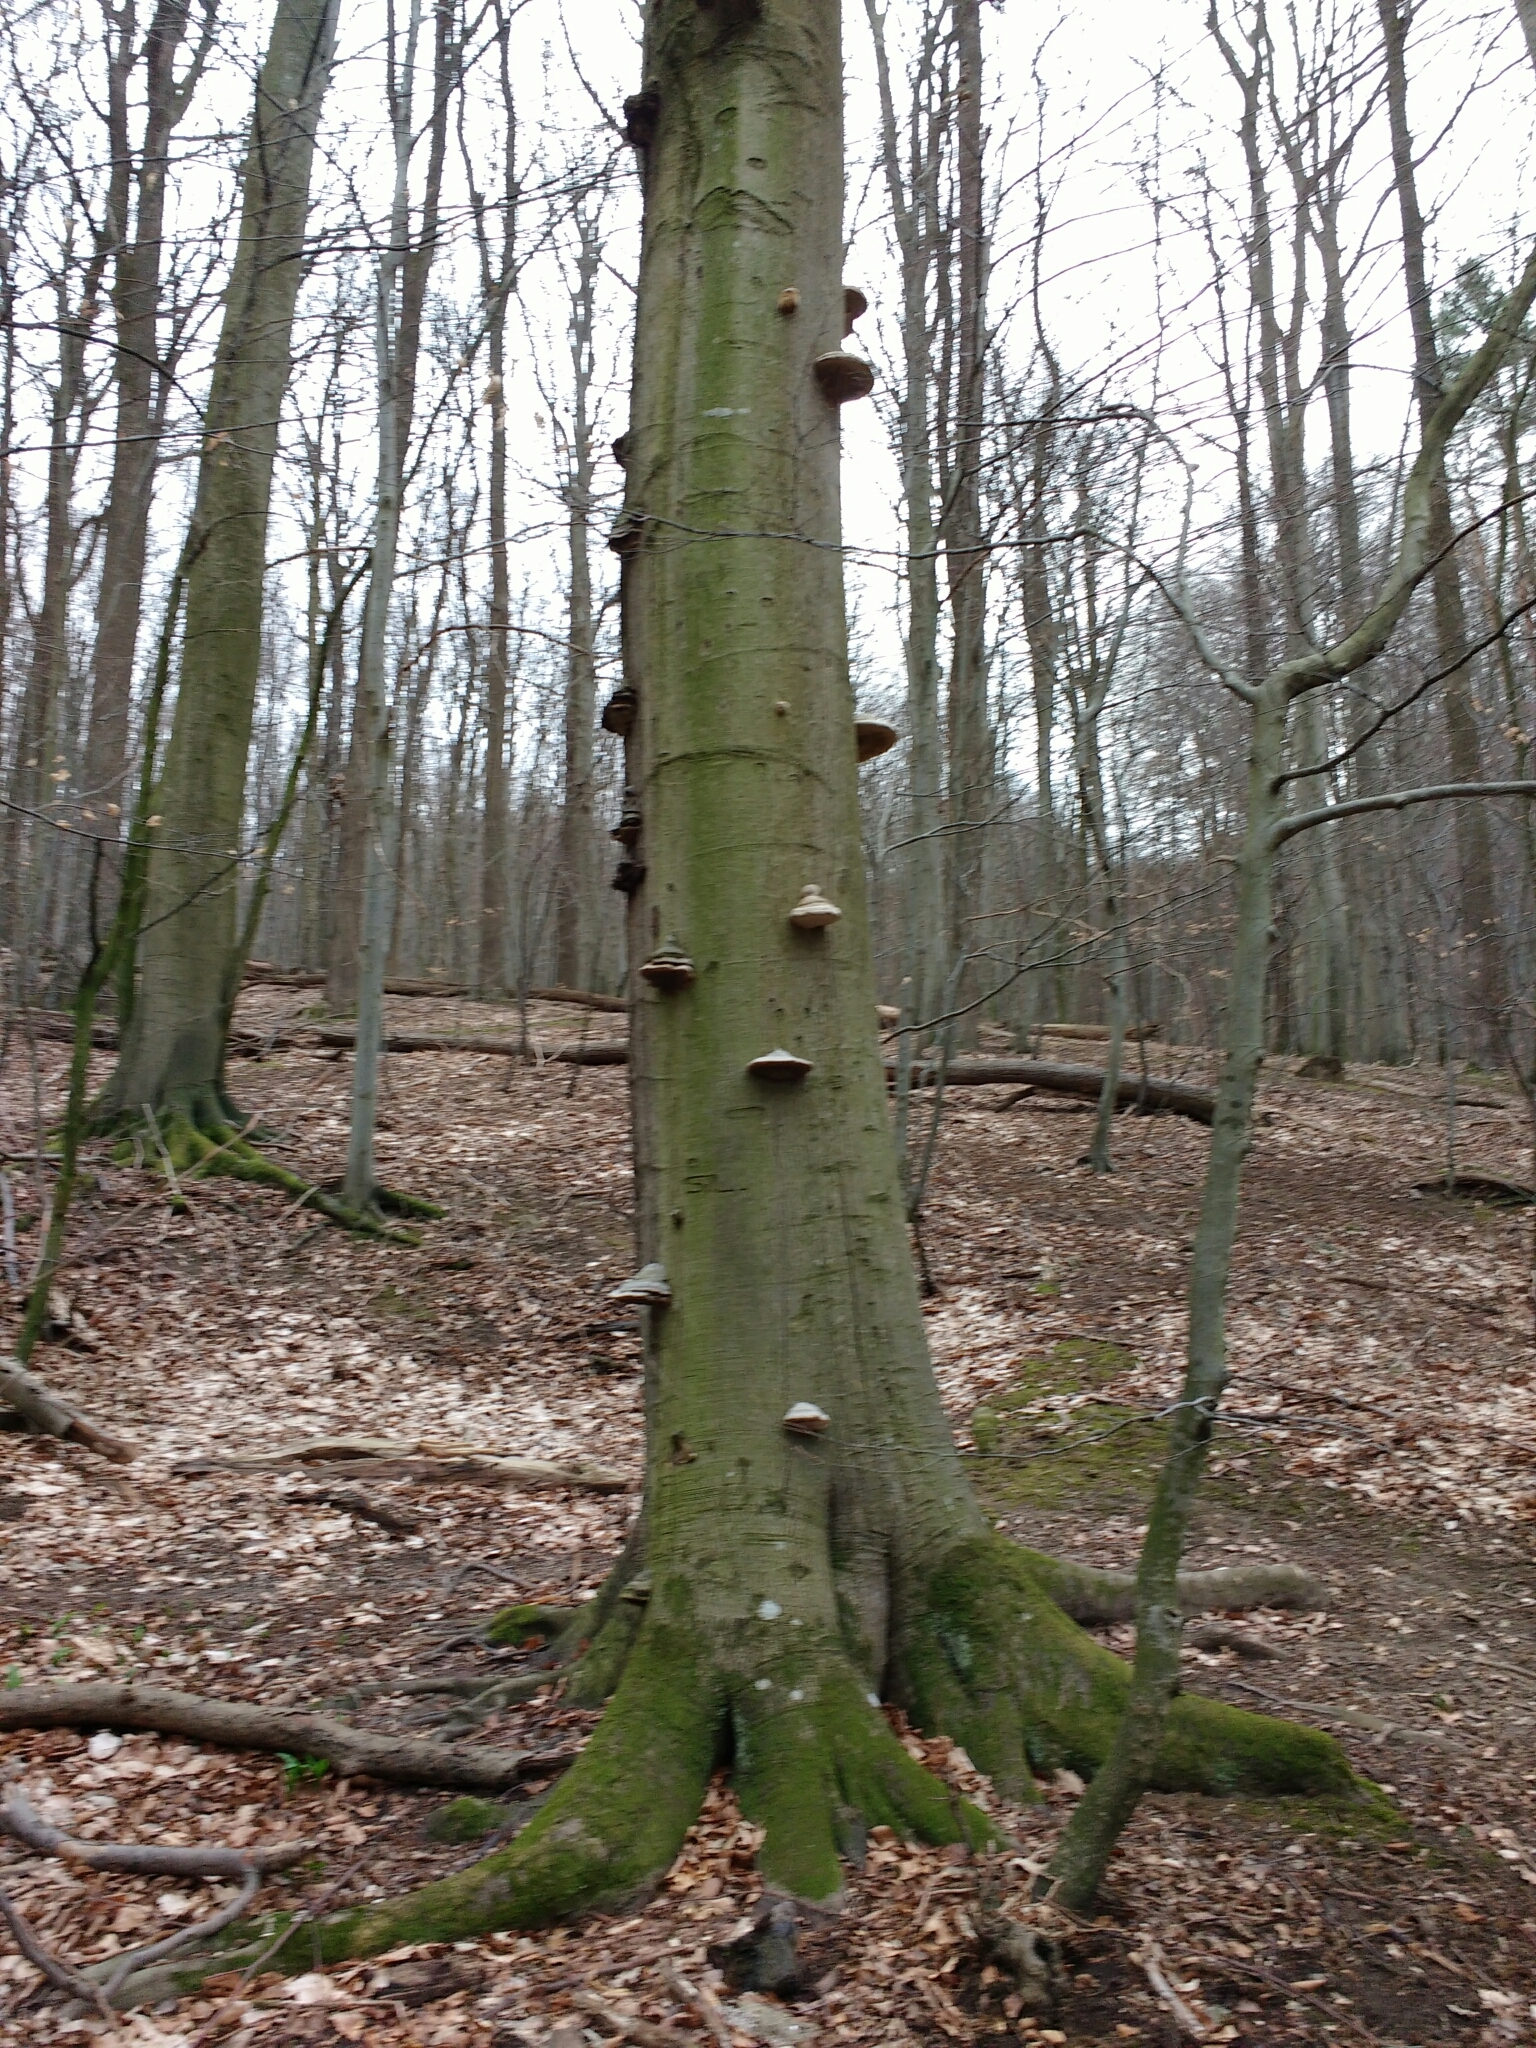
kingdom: Fungi
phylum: Basidiomycota
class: Agaricomycetes
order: Polyporales
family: Polyporaceae
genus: Fomes
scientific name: Fomes fomentarius
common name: Hoof fungus
